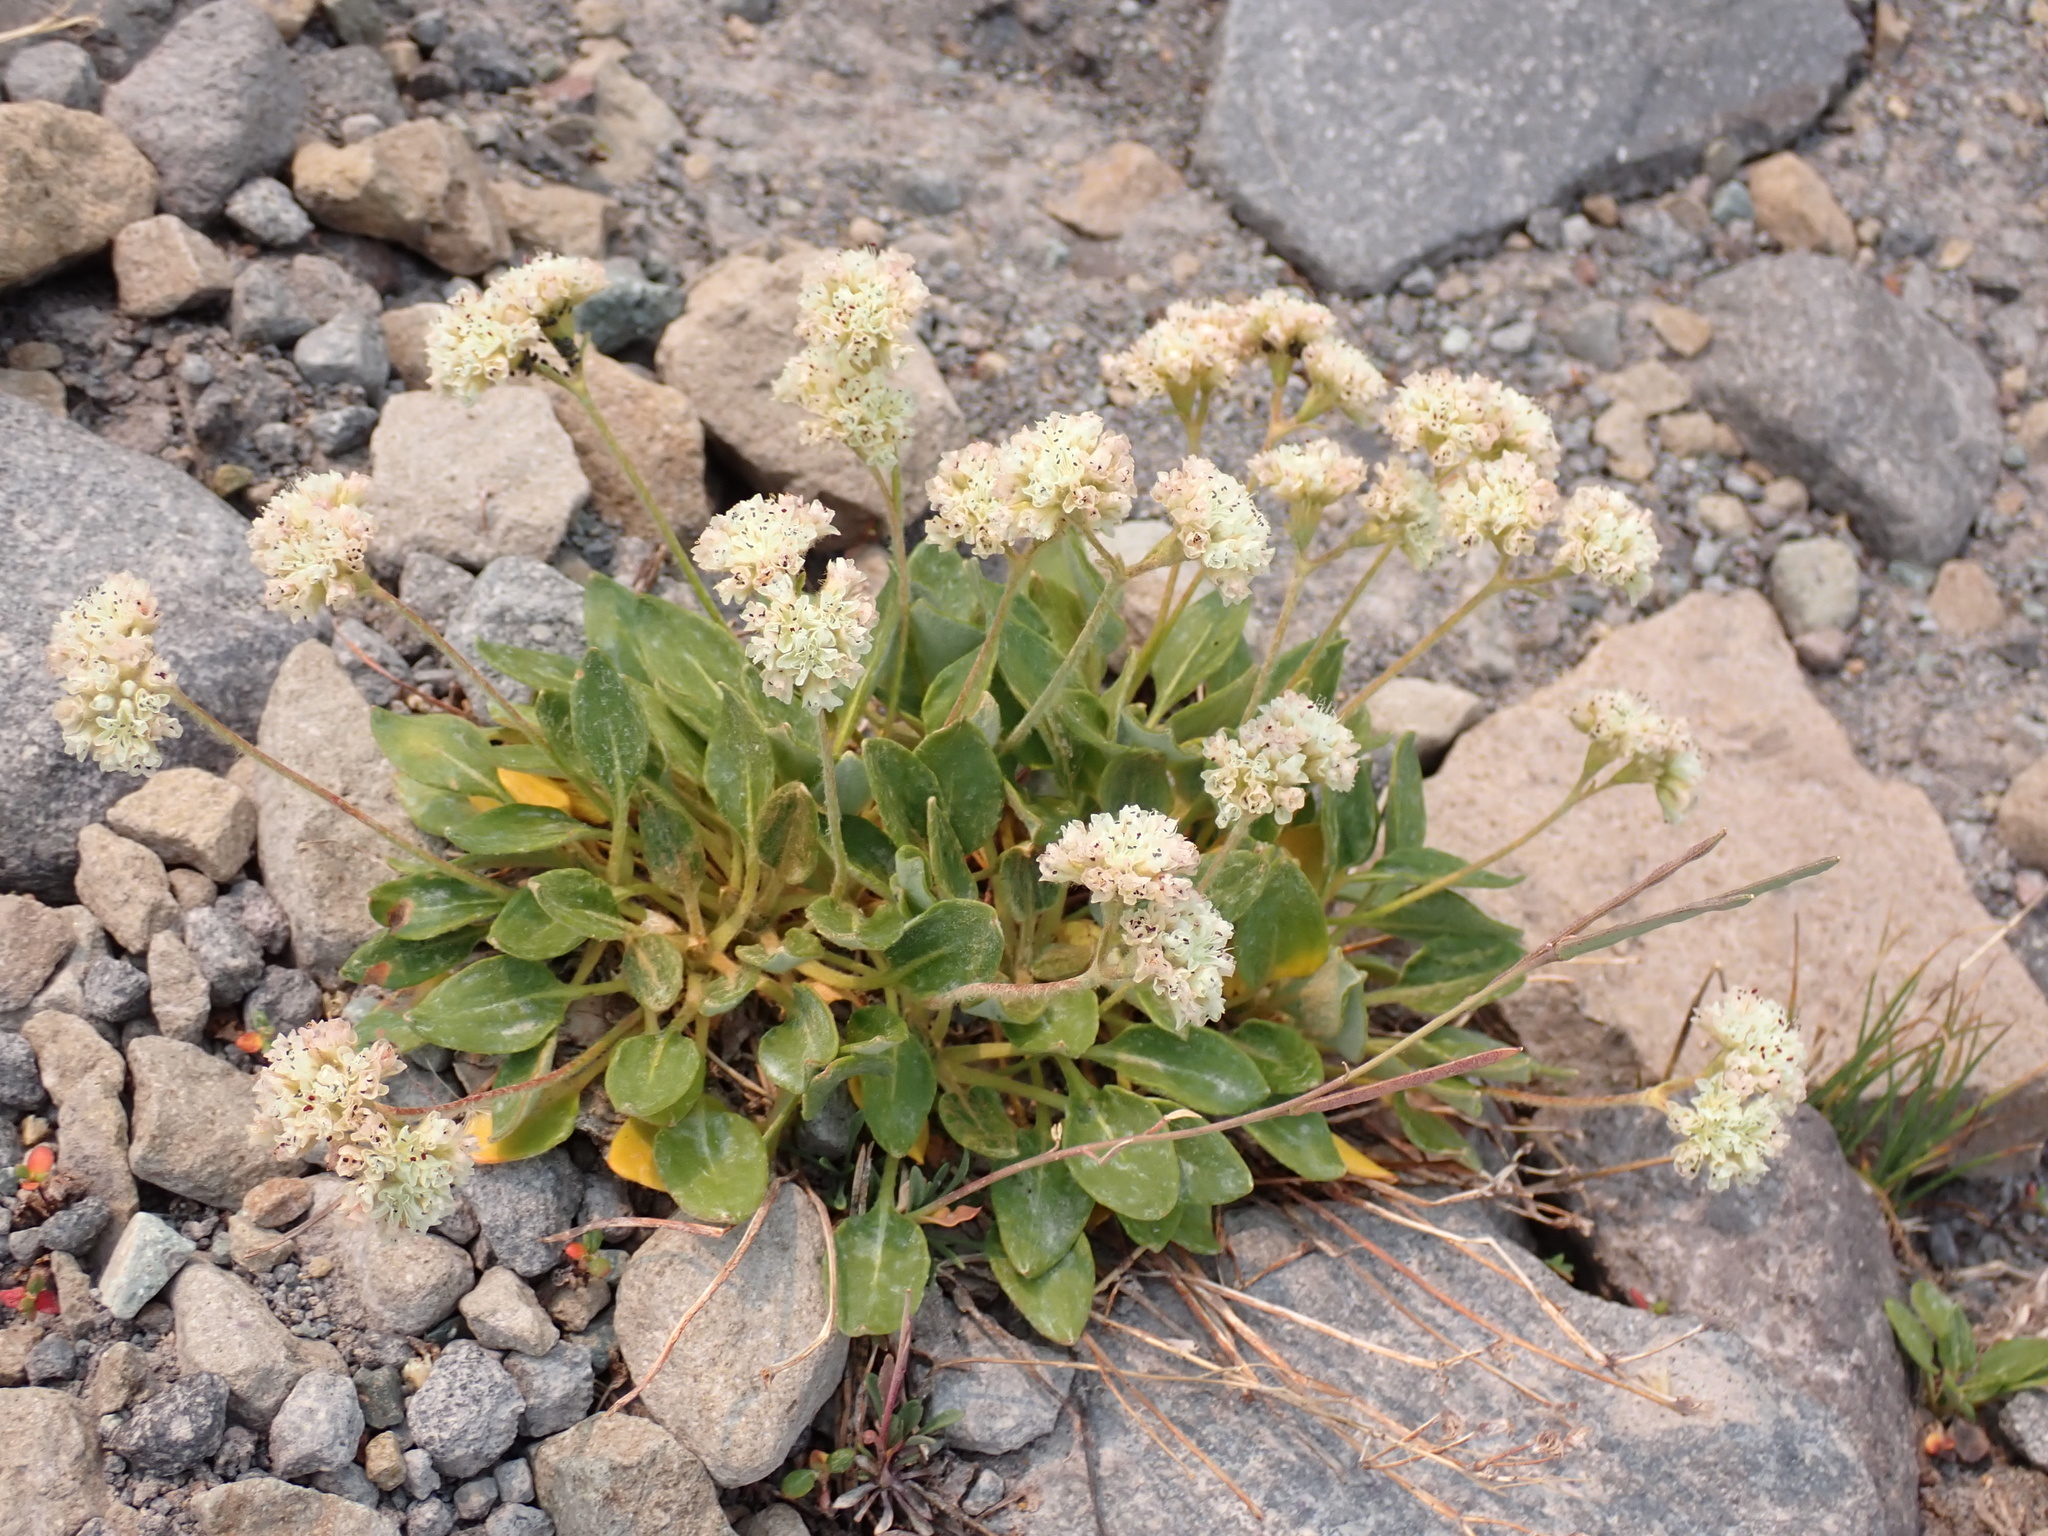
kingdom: Plantae
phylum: Tracheophyta
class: Magnoliopsida
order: Caryophyllales
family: Polygonaceae
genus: Eriogonum
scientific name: Eriogonum pyrolifolium
